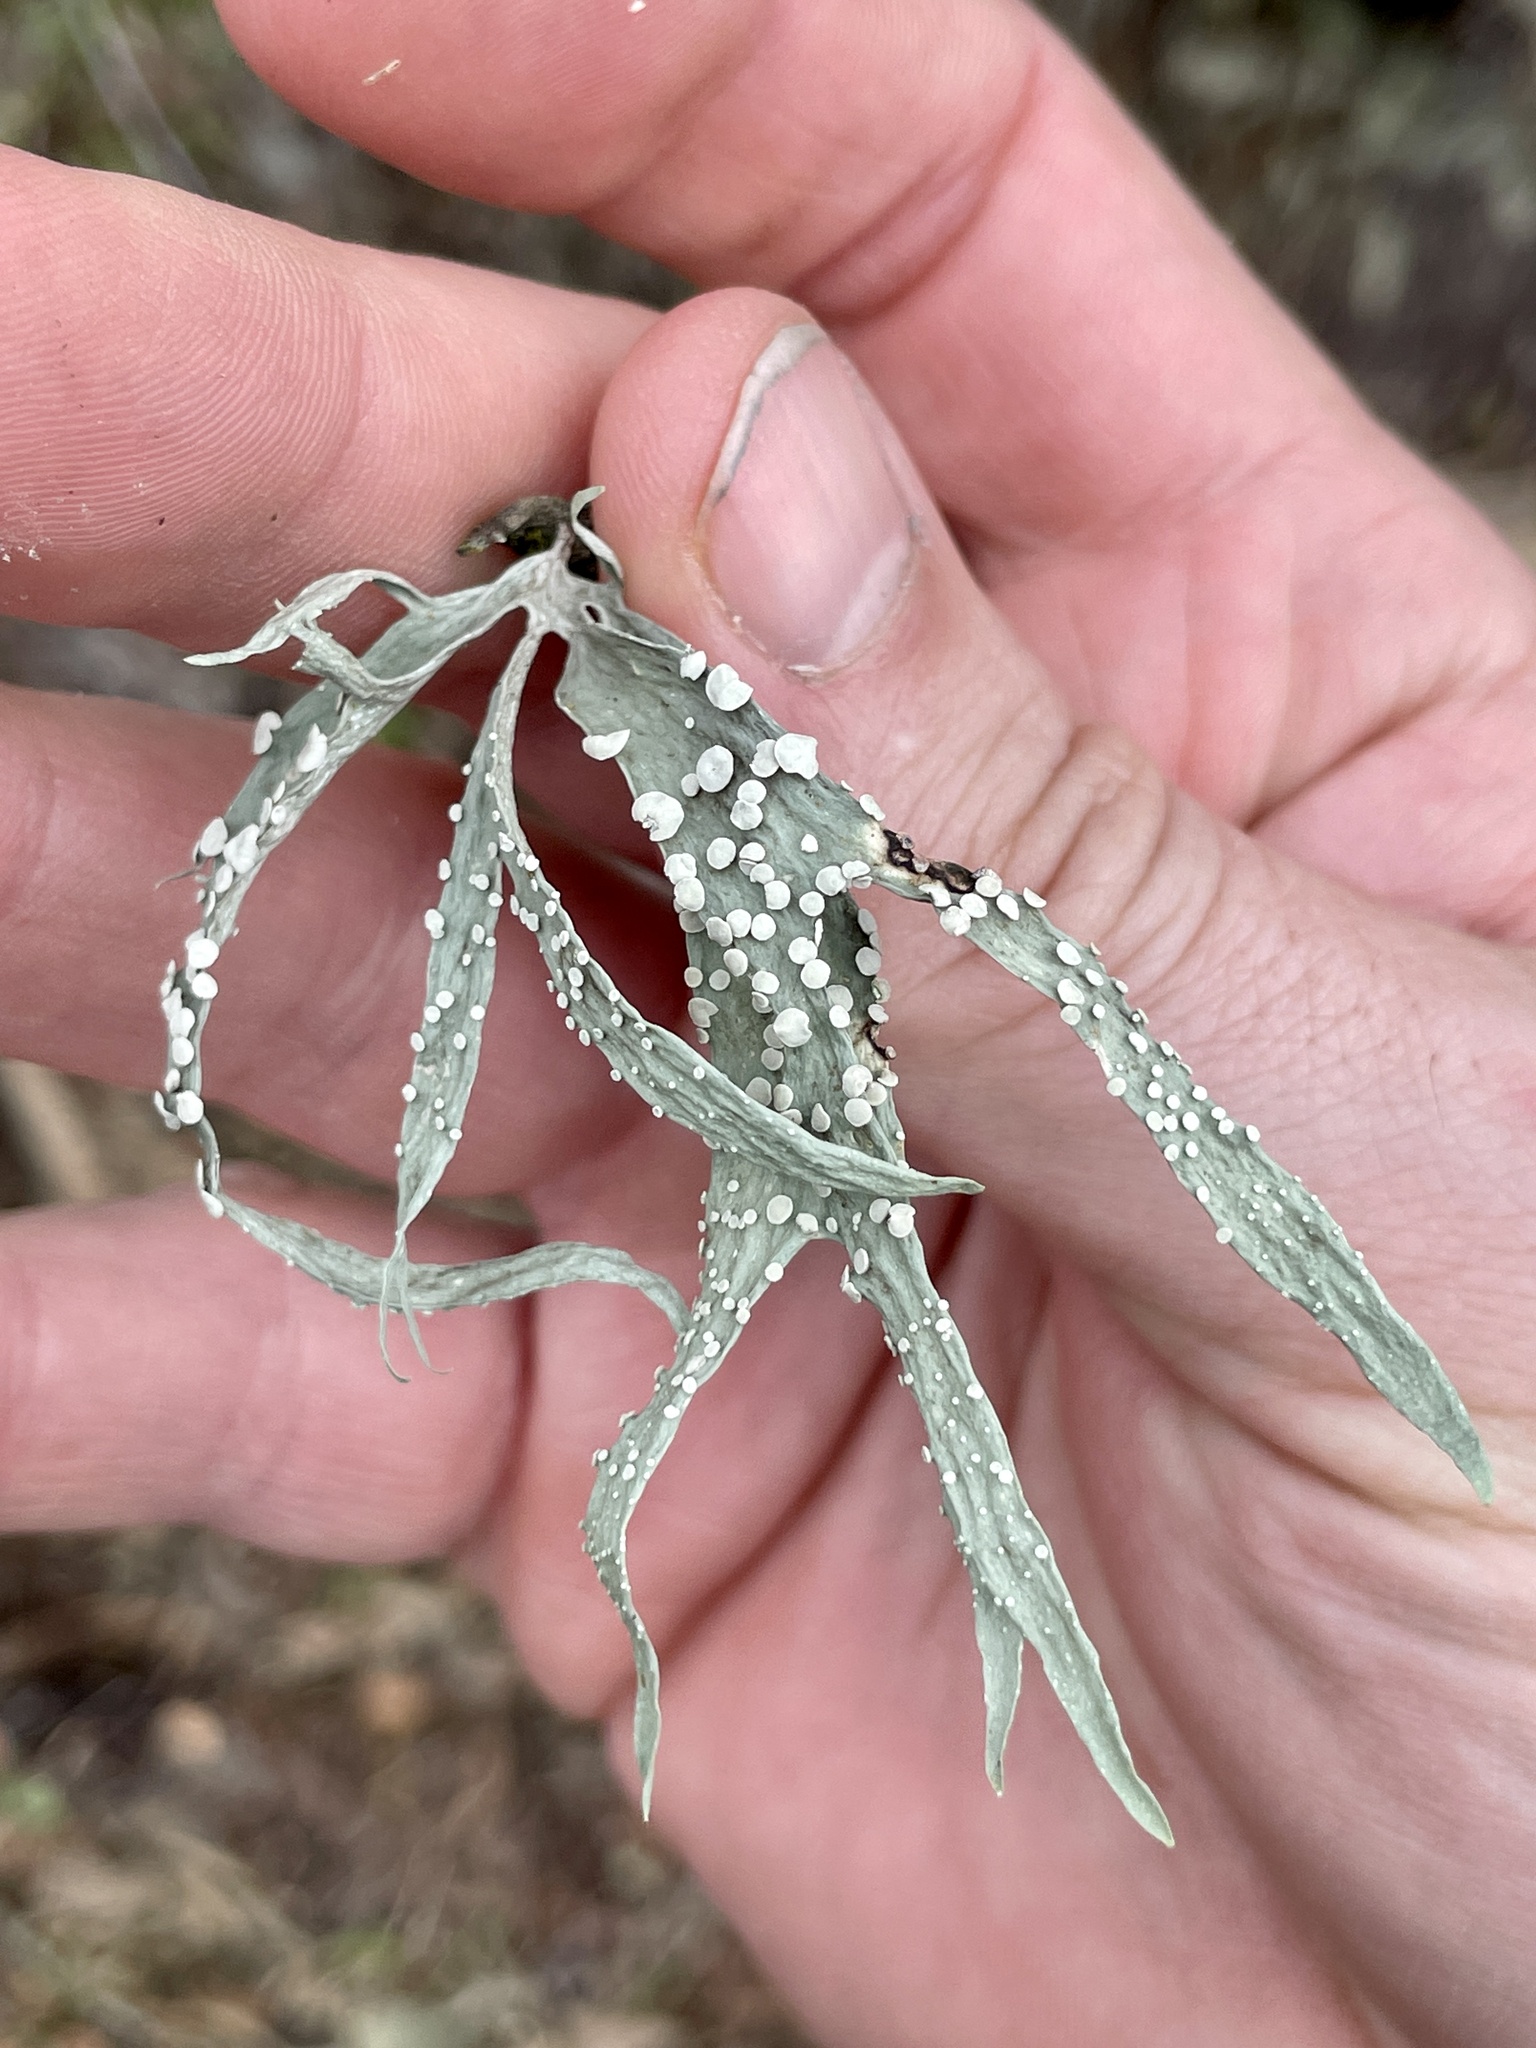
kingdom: Fungi
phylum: Ascomycota
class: Lecanoromycetes
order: Lecanorales
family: Ramalinaceae
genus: Ramalina
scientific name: Ramalina celastri
